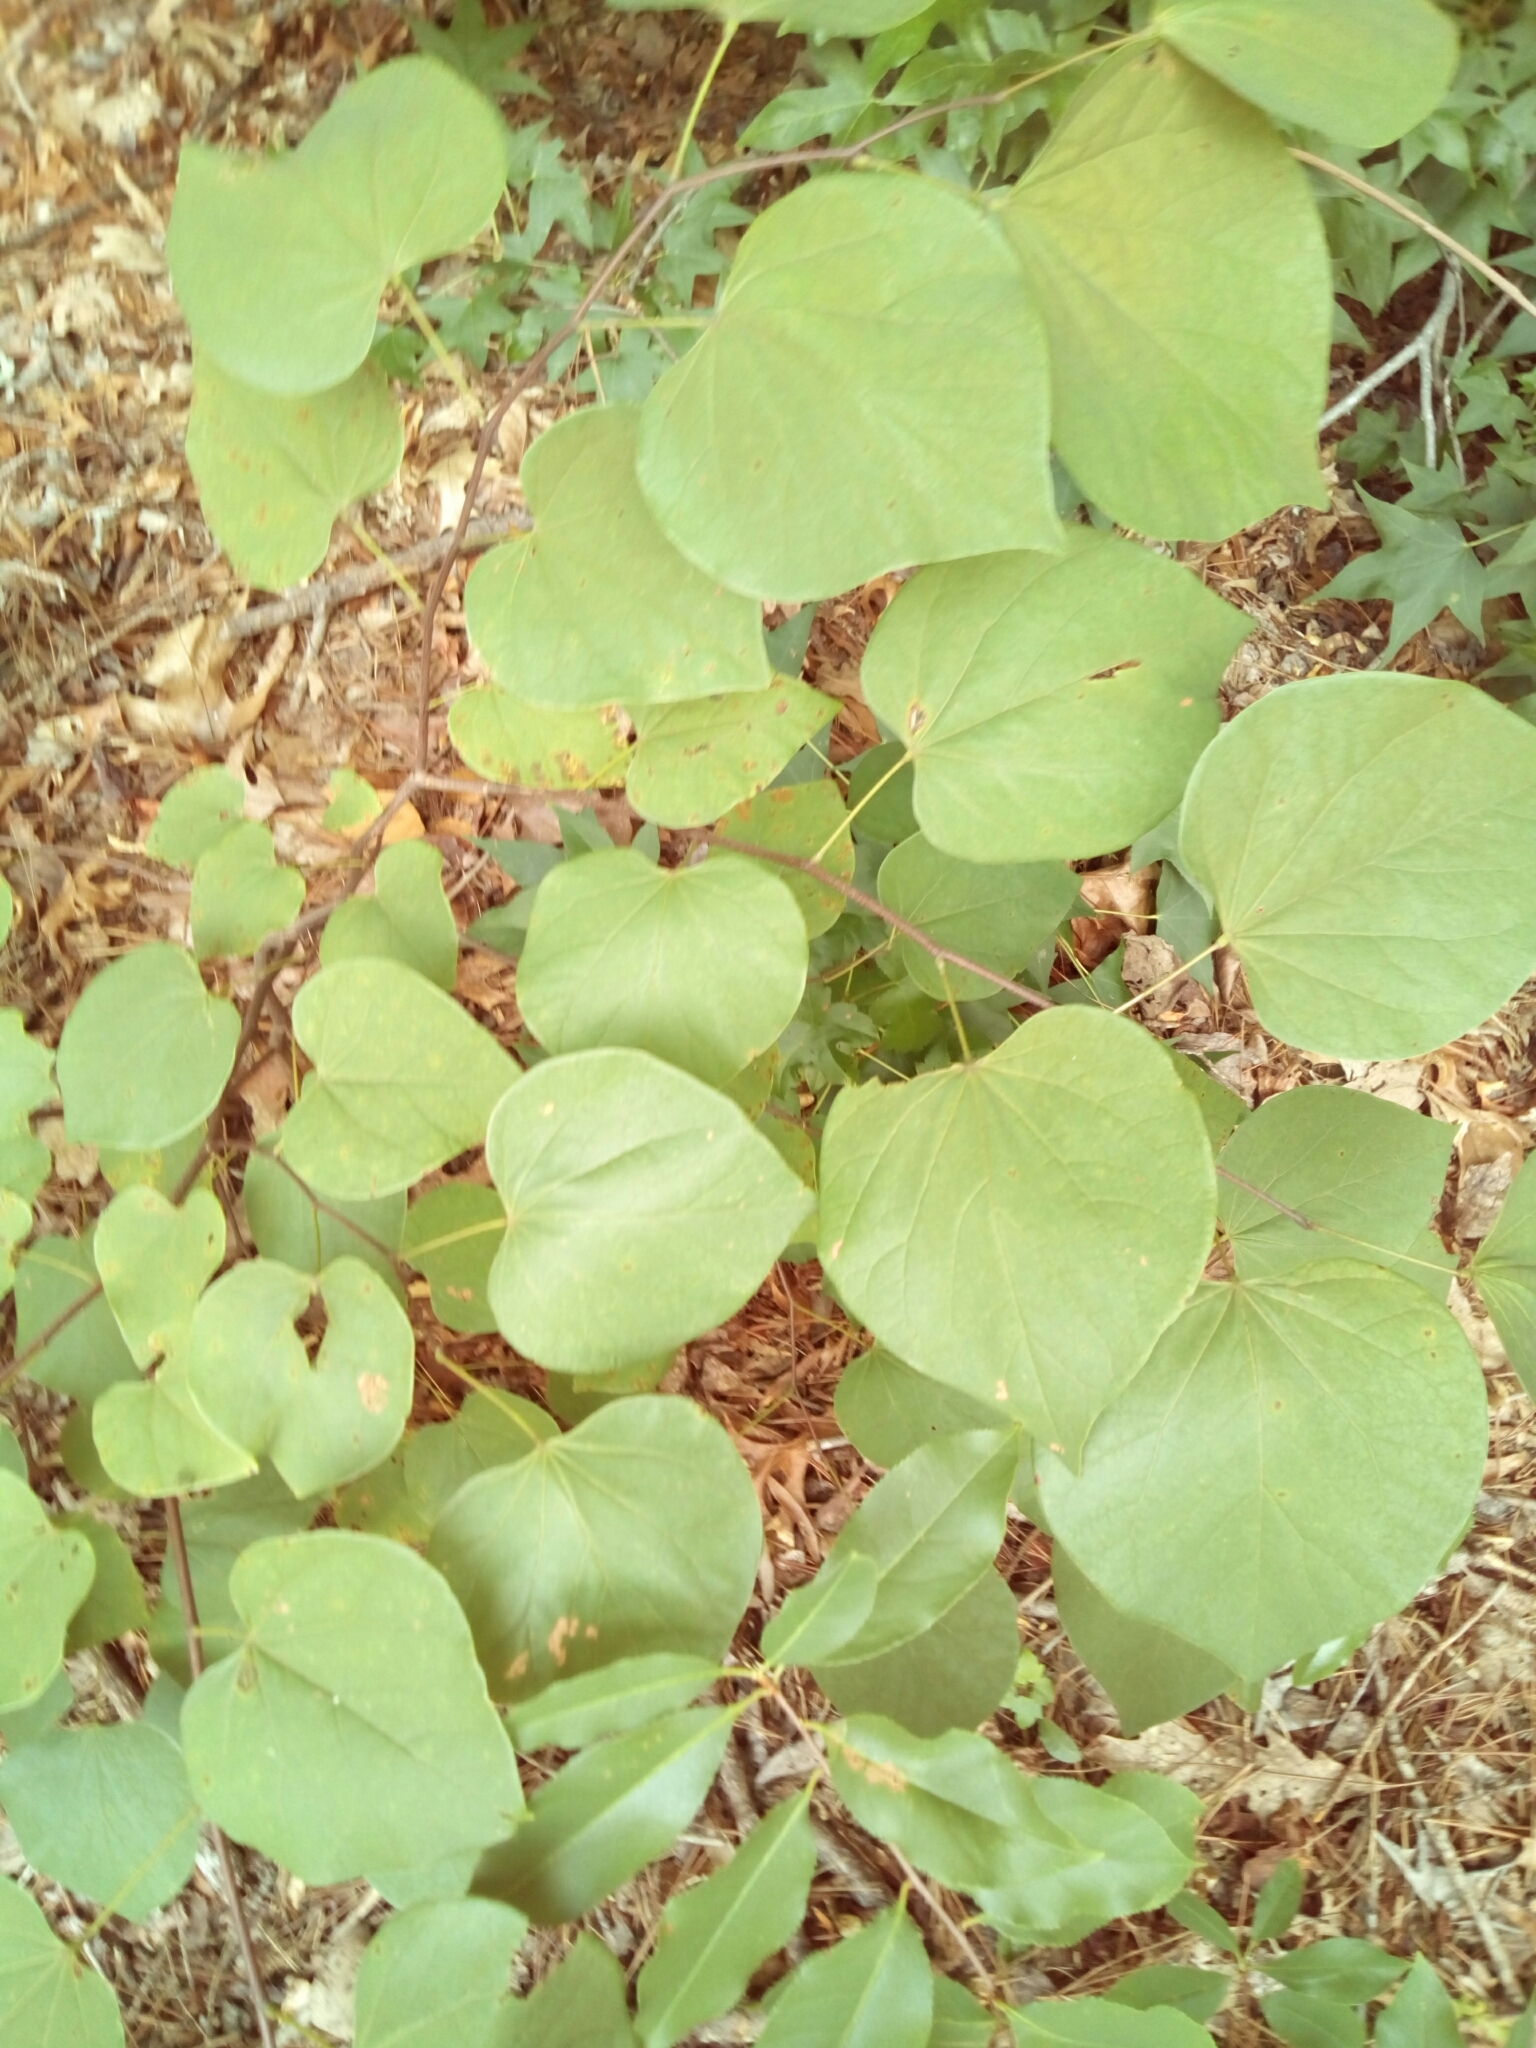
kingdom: Plantae
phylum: Tracheophyta
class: Magnoliopsida
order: Fabales
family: Fabaceae
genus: Cercis
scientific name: Cercis canadensis
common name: Eastern redbud
